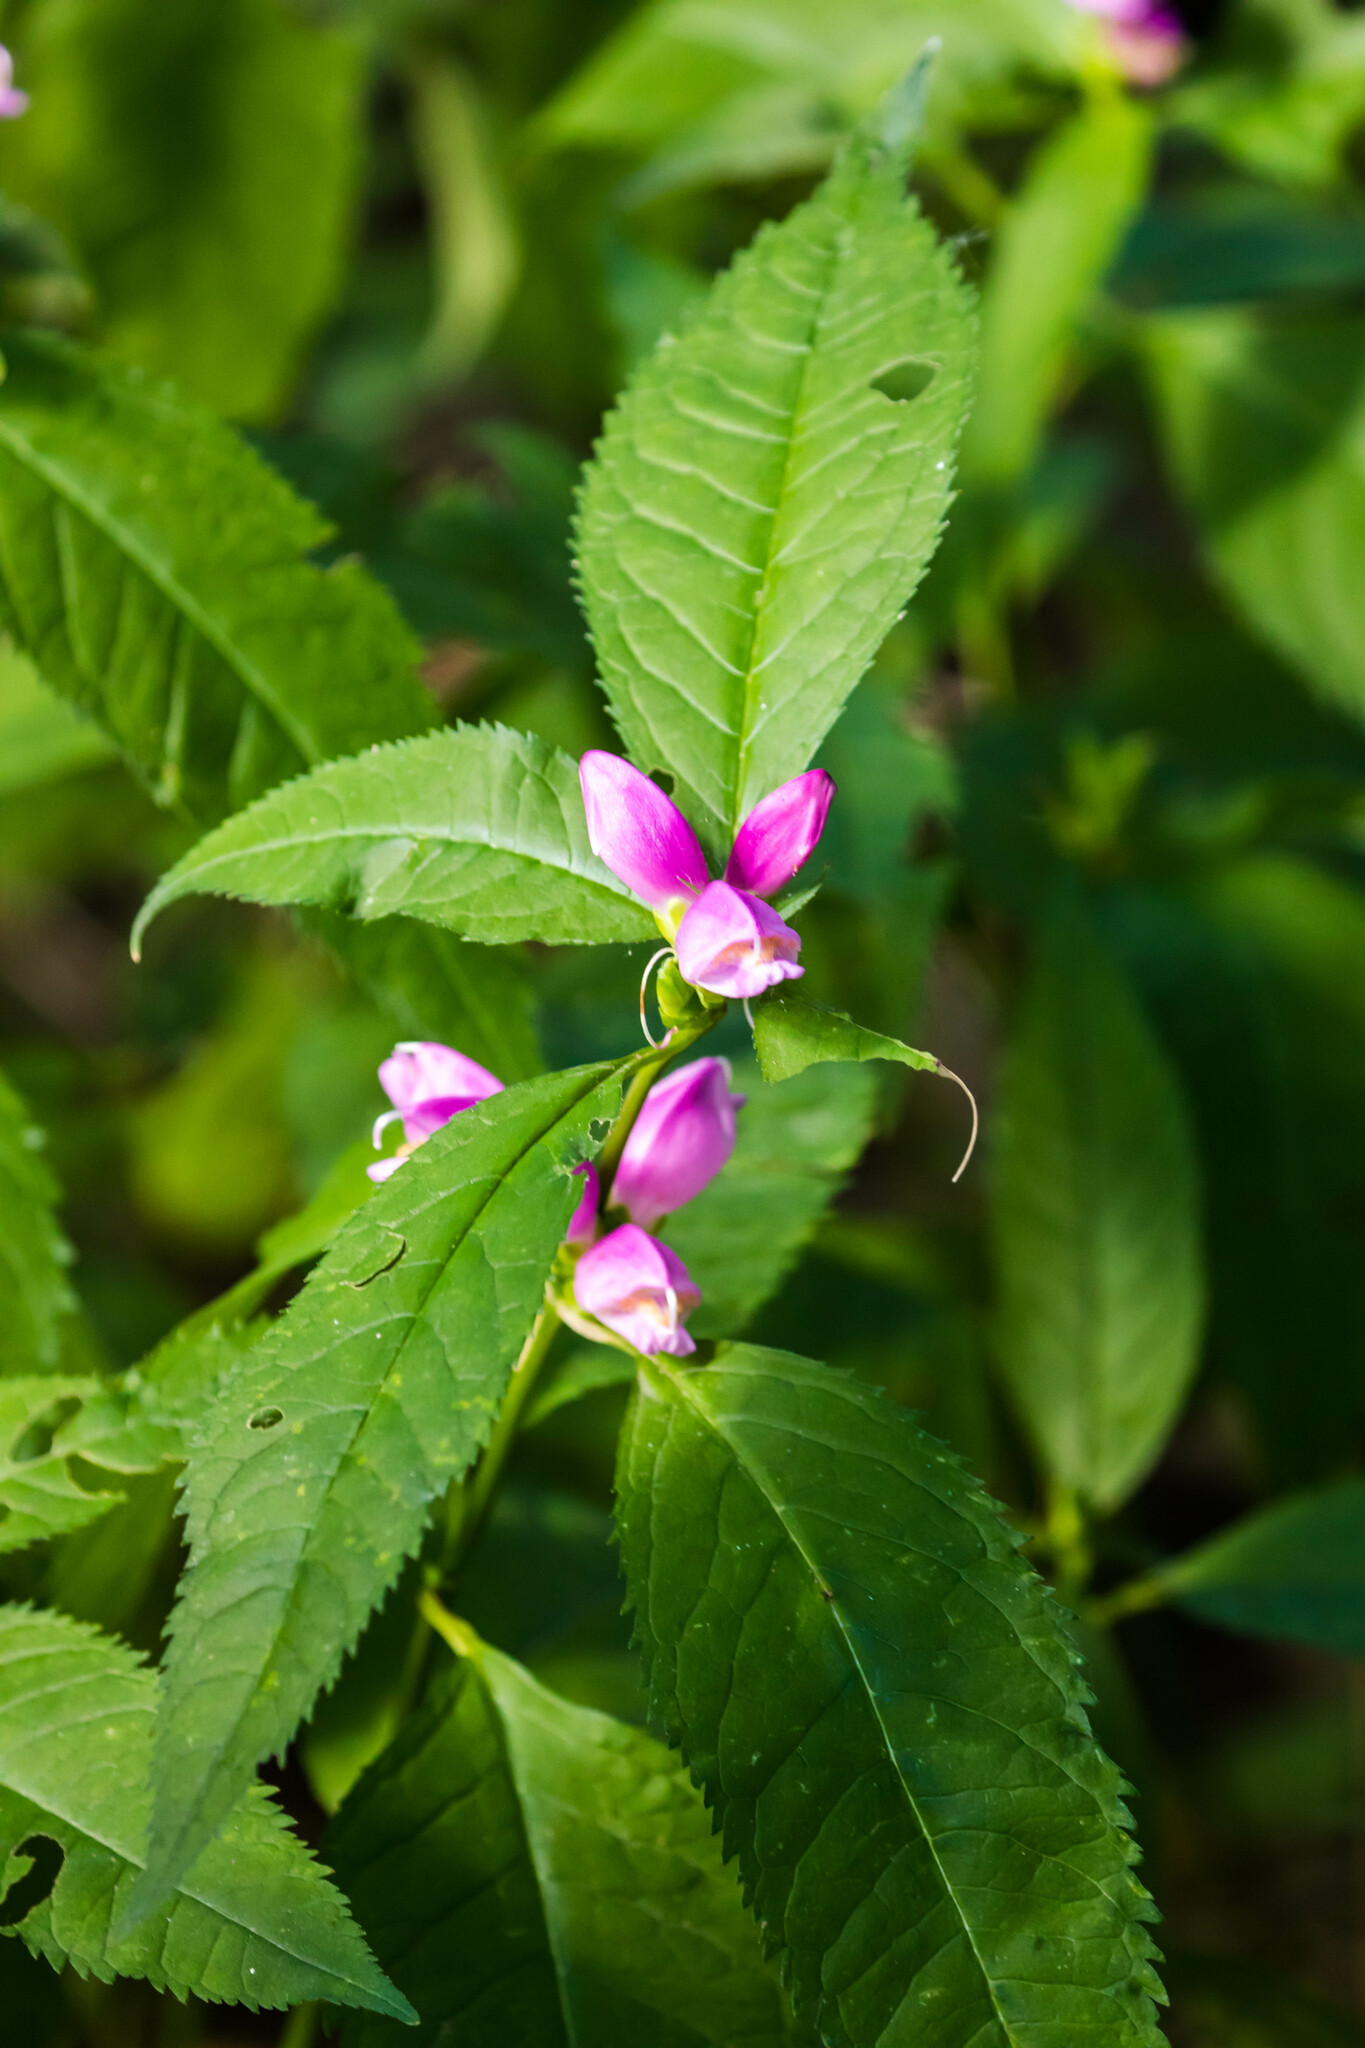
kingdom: Plantae
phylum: Tracheophyta
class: Magnoliopsida
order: Lamiales
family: Plantaginaceae
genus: Chelone
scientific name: Chelone lyonii
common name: Pink turtlehead
